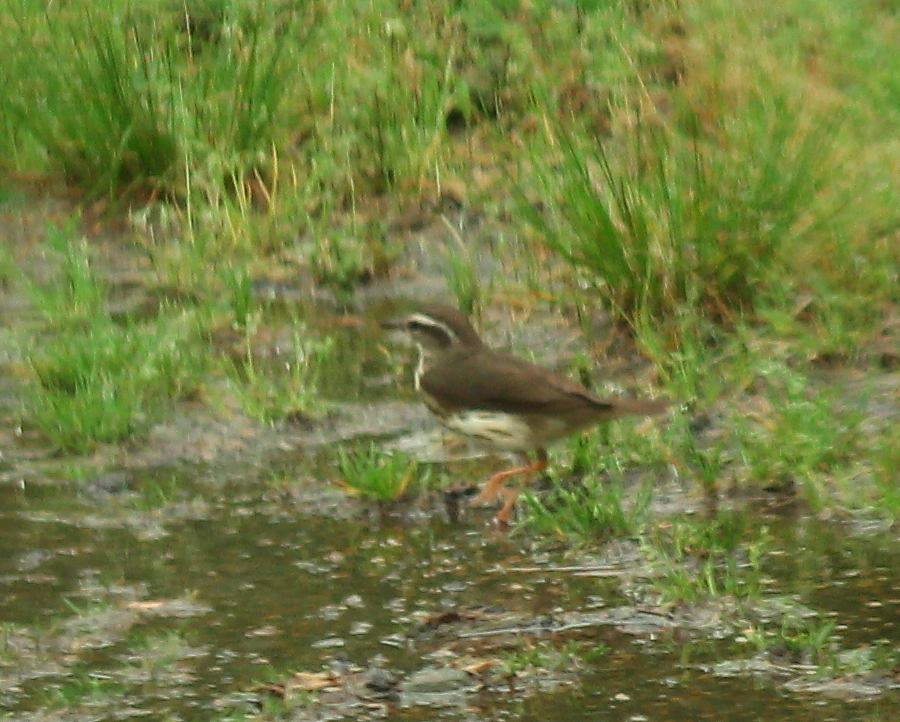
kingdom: Animalia
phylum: Chordata
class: Aves
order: Passeriformes
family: Parulidae
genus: Parkesia
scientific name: Parkesia motacilla
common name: Louisiana waterthrush
